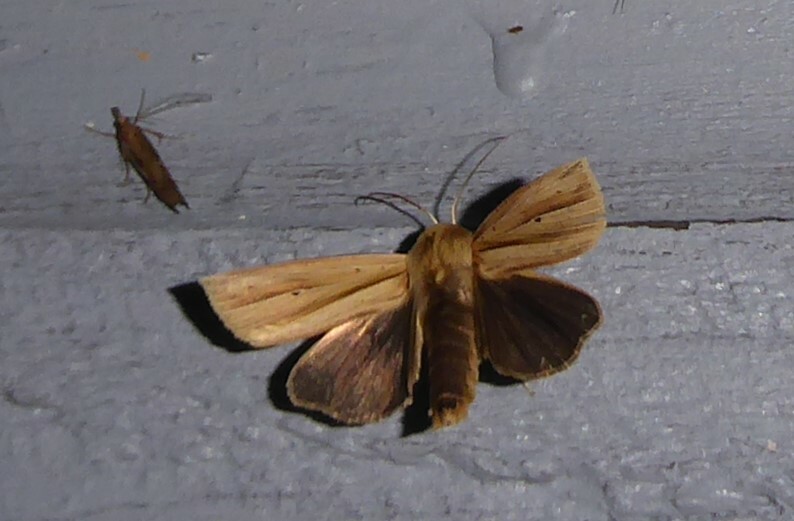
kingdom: Animalia
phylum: Arthropoda
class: Insecta
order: Lepidoptera
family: Noctuidae
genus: Ichneutica
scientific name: Ichneutica sulcana
